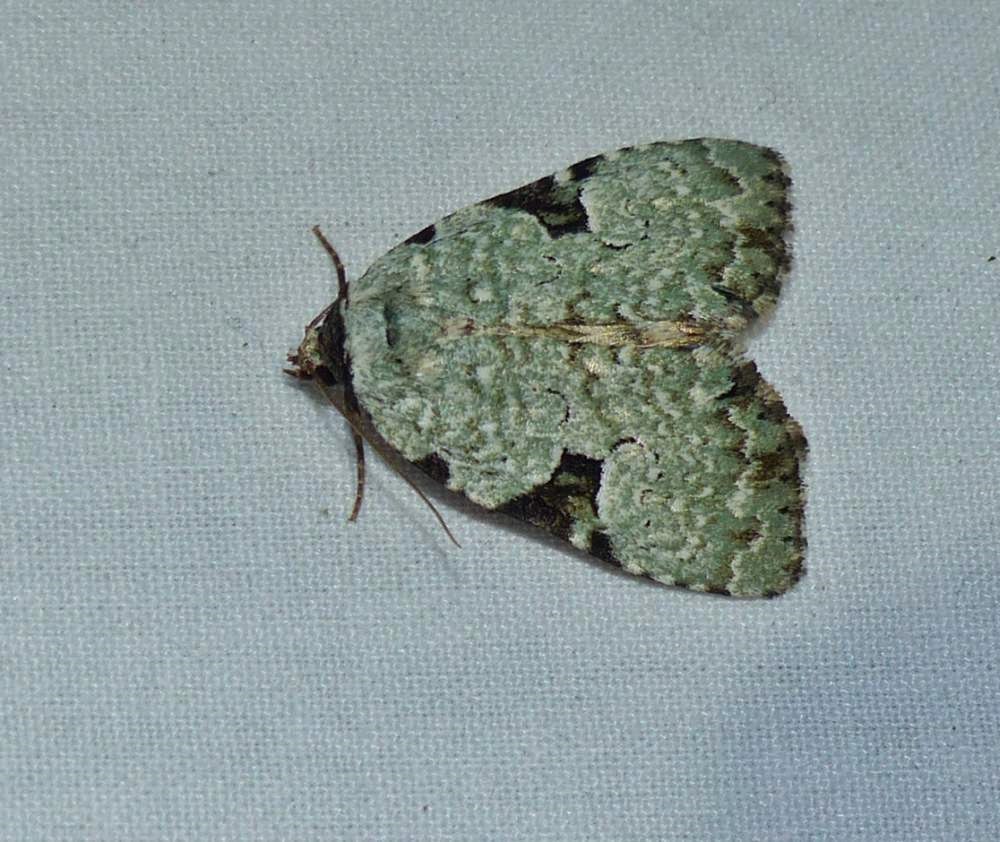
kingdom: Animalia
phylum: Arthropoda
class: Insecta
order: Lepidoptera
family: Noctuidae
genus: Leuconycta
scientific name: Leuconycta diphteroides
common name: Green leuconycta moth
